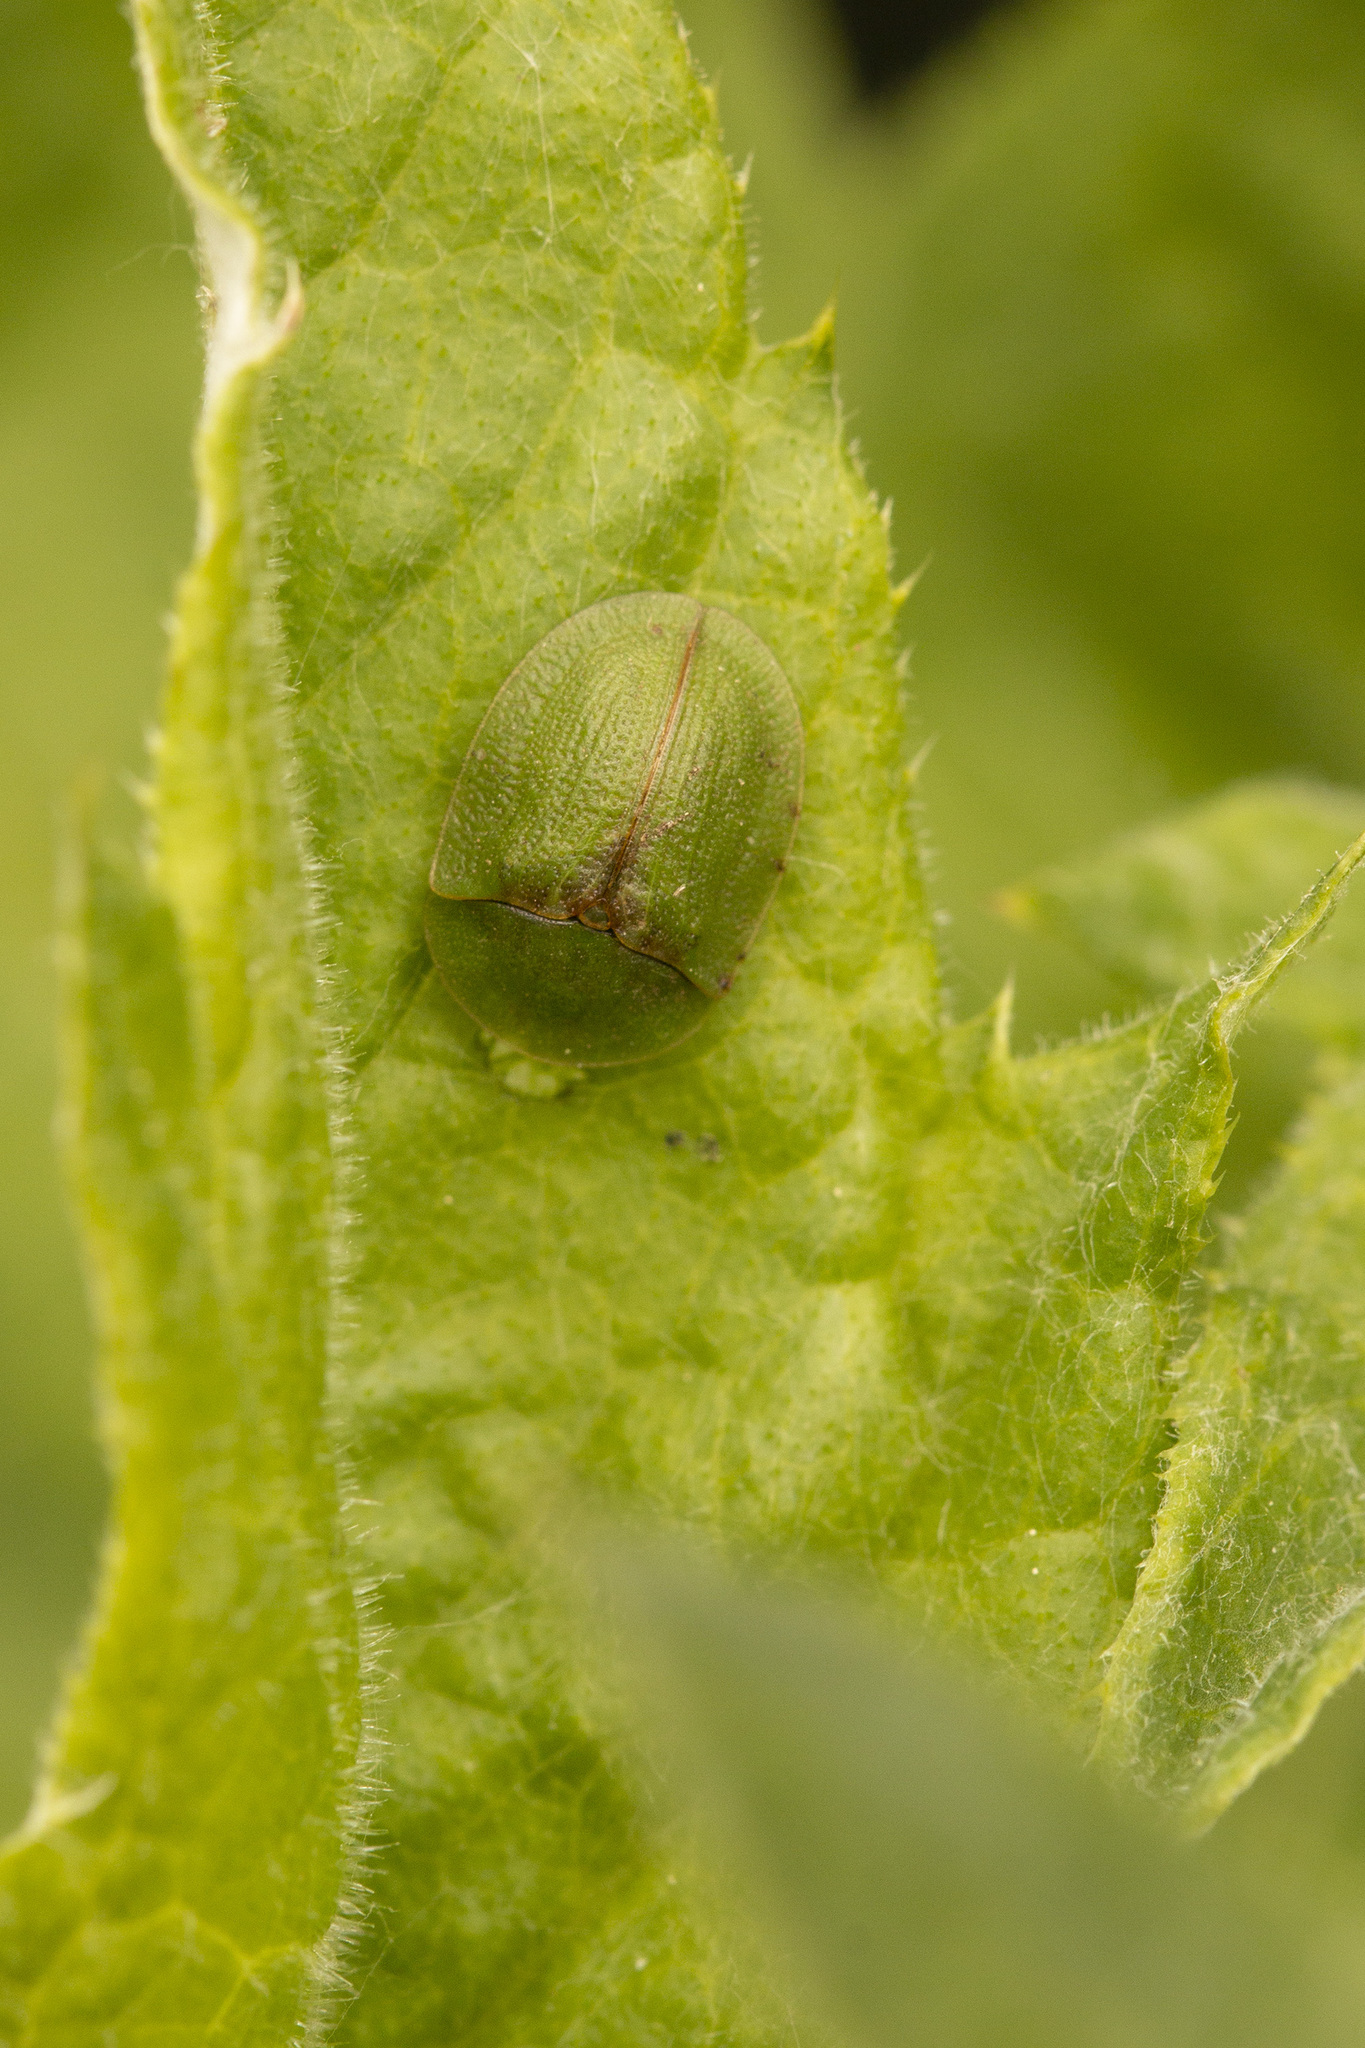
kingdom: Animalia
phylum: Arthropoda
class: Insecta
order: Coleoptera
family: Chrysomelidae
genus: Cassida
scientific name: Cassida rubiginosa
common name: Thistle tortoise beetle
